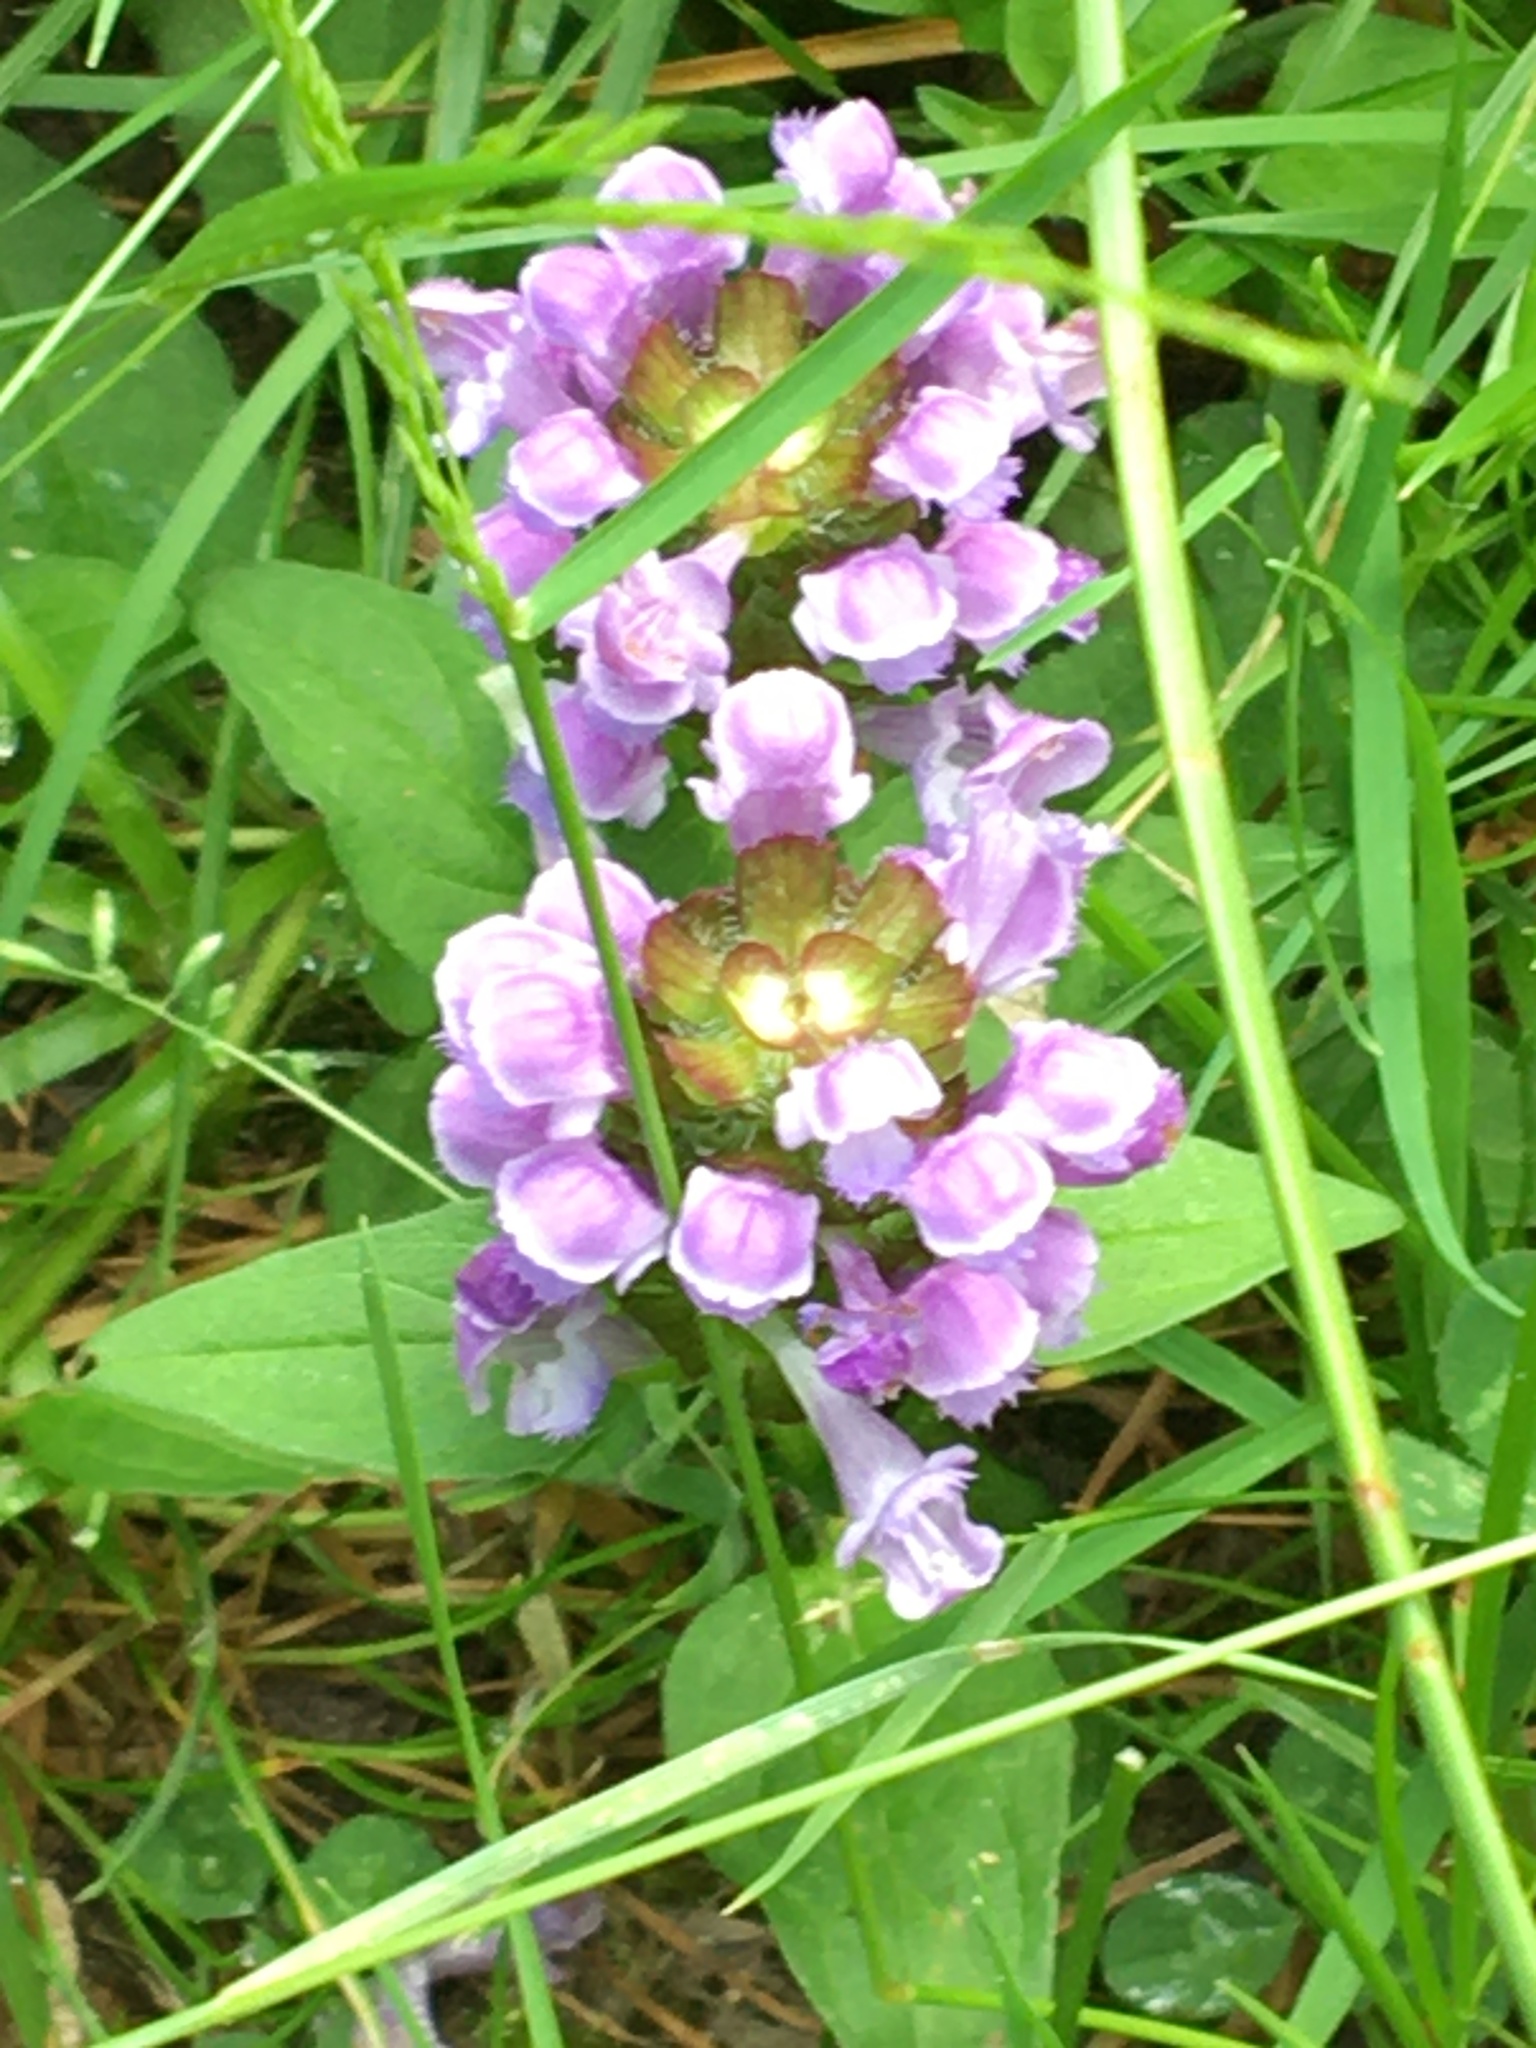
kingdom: Plantae
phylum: Tracheophyta
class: Magnoliopsida
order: Lamiales
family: Lamiaceae
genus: Prunella
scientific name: Prunella vulgaris
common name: Heal-all
